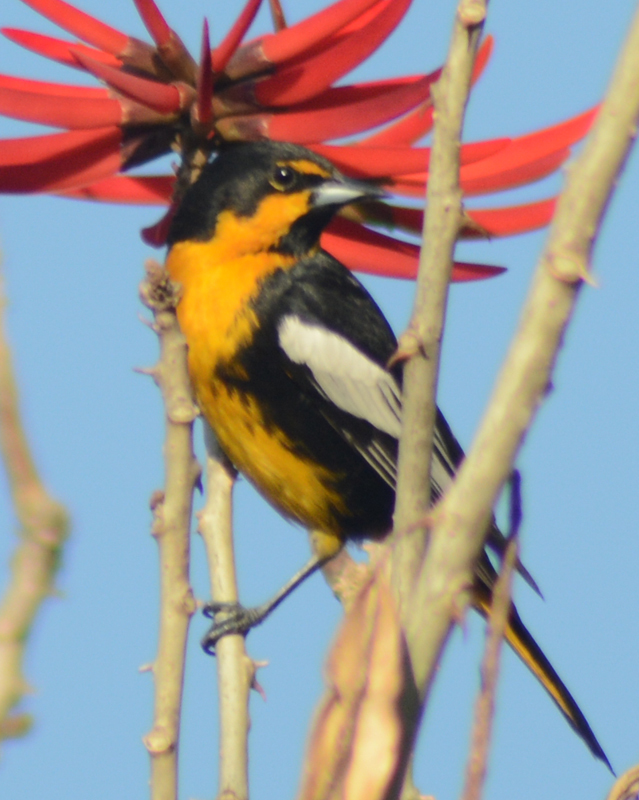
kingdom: Animalia
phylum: Chordata
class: Aves
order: Passeriformes
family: Icteridae
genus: Icterus
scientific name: Icterus abeillei
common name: Black-backed oriole
